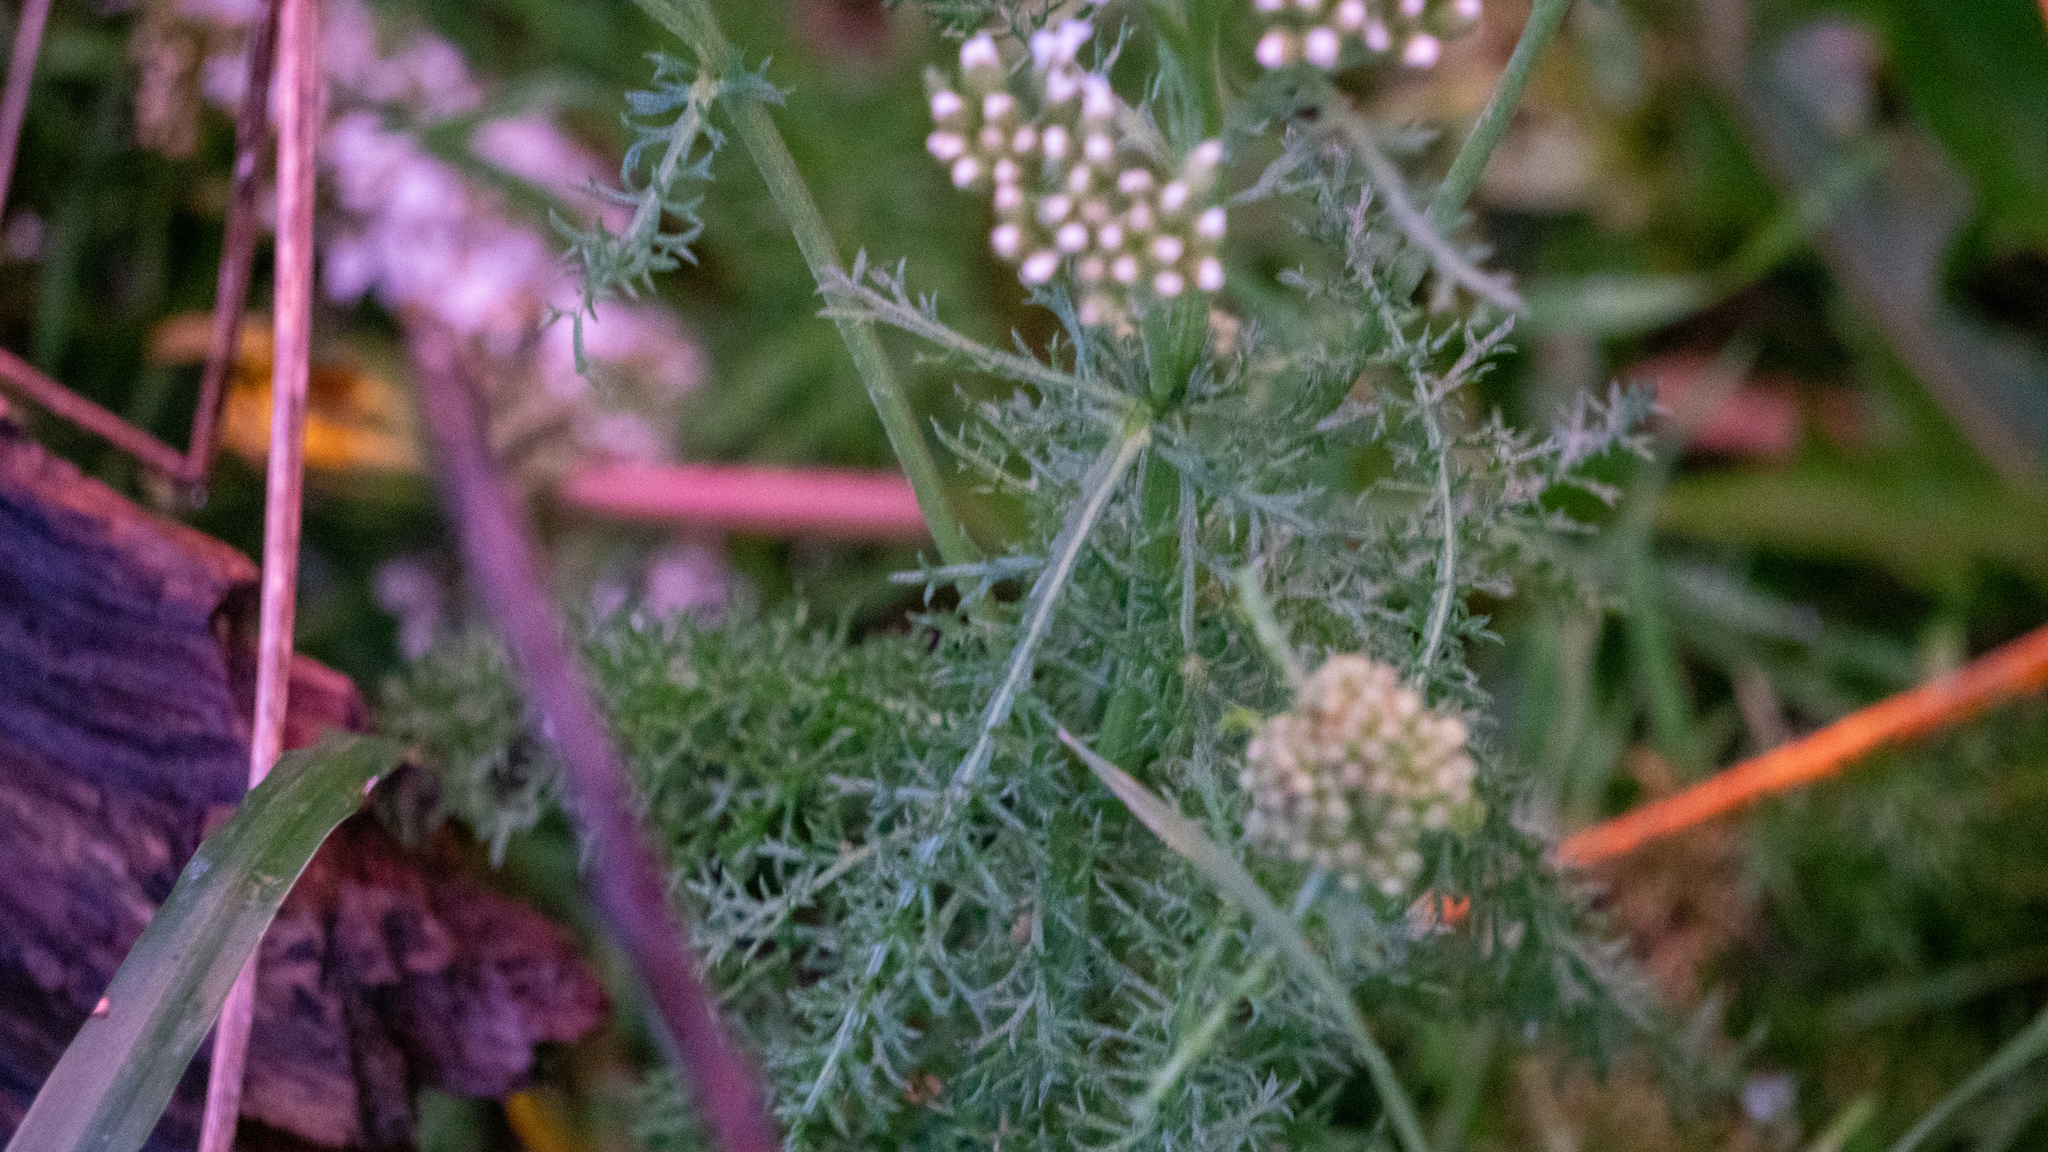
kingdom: Plantae
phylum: Tracheophyta
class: Magnoliopsida
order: Asterales
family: Asteraceae
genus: Achillea
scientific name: Achillea millefolium
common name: Yarrow
